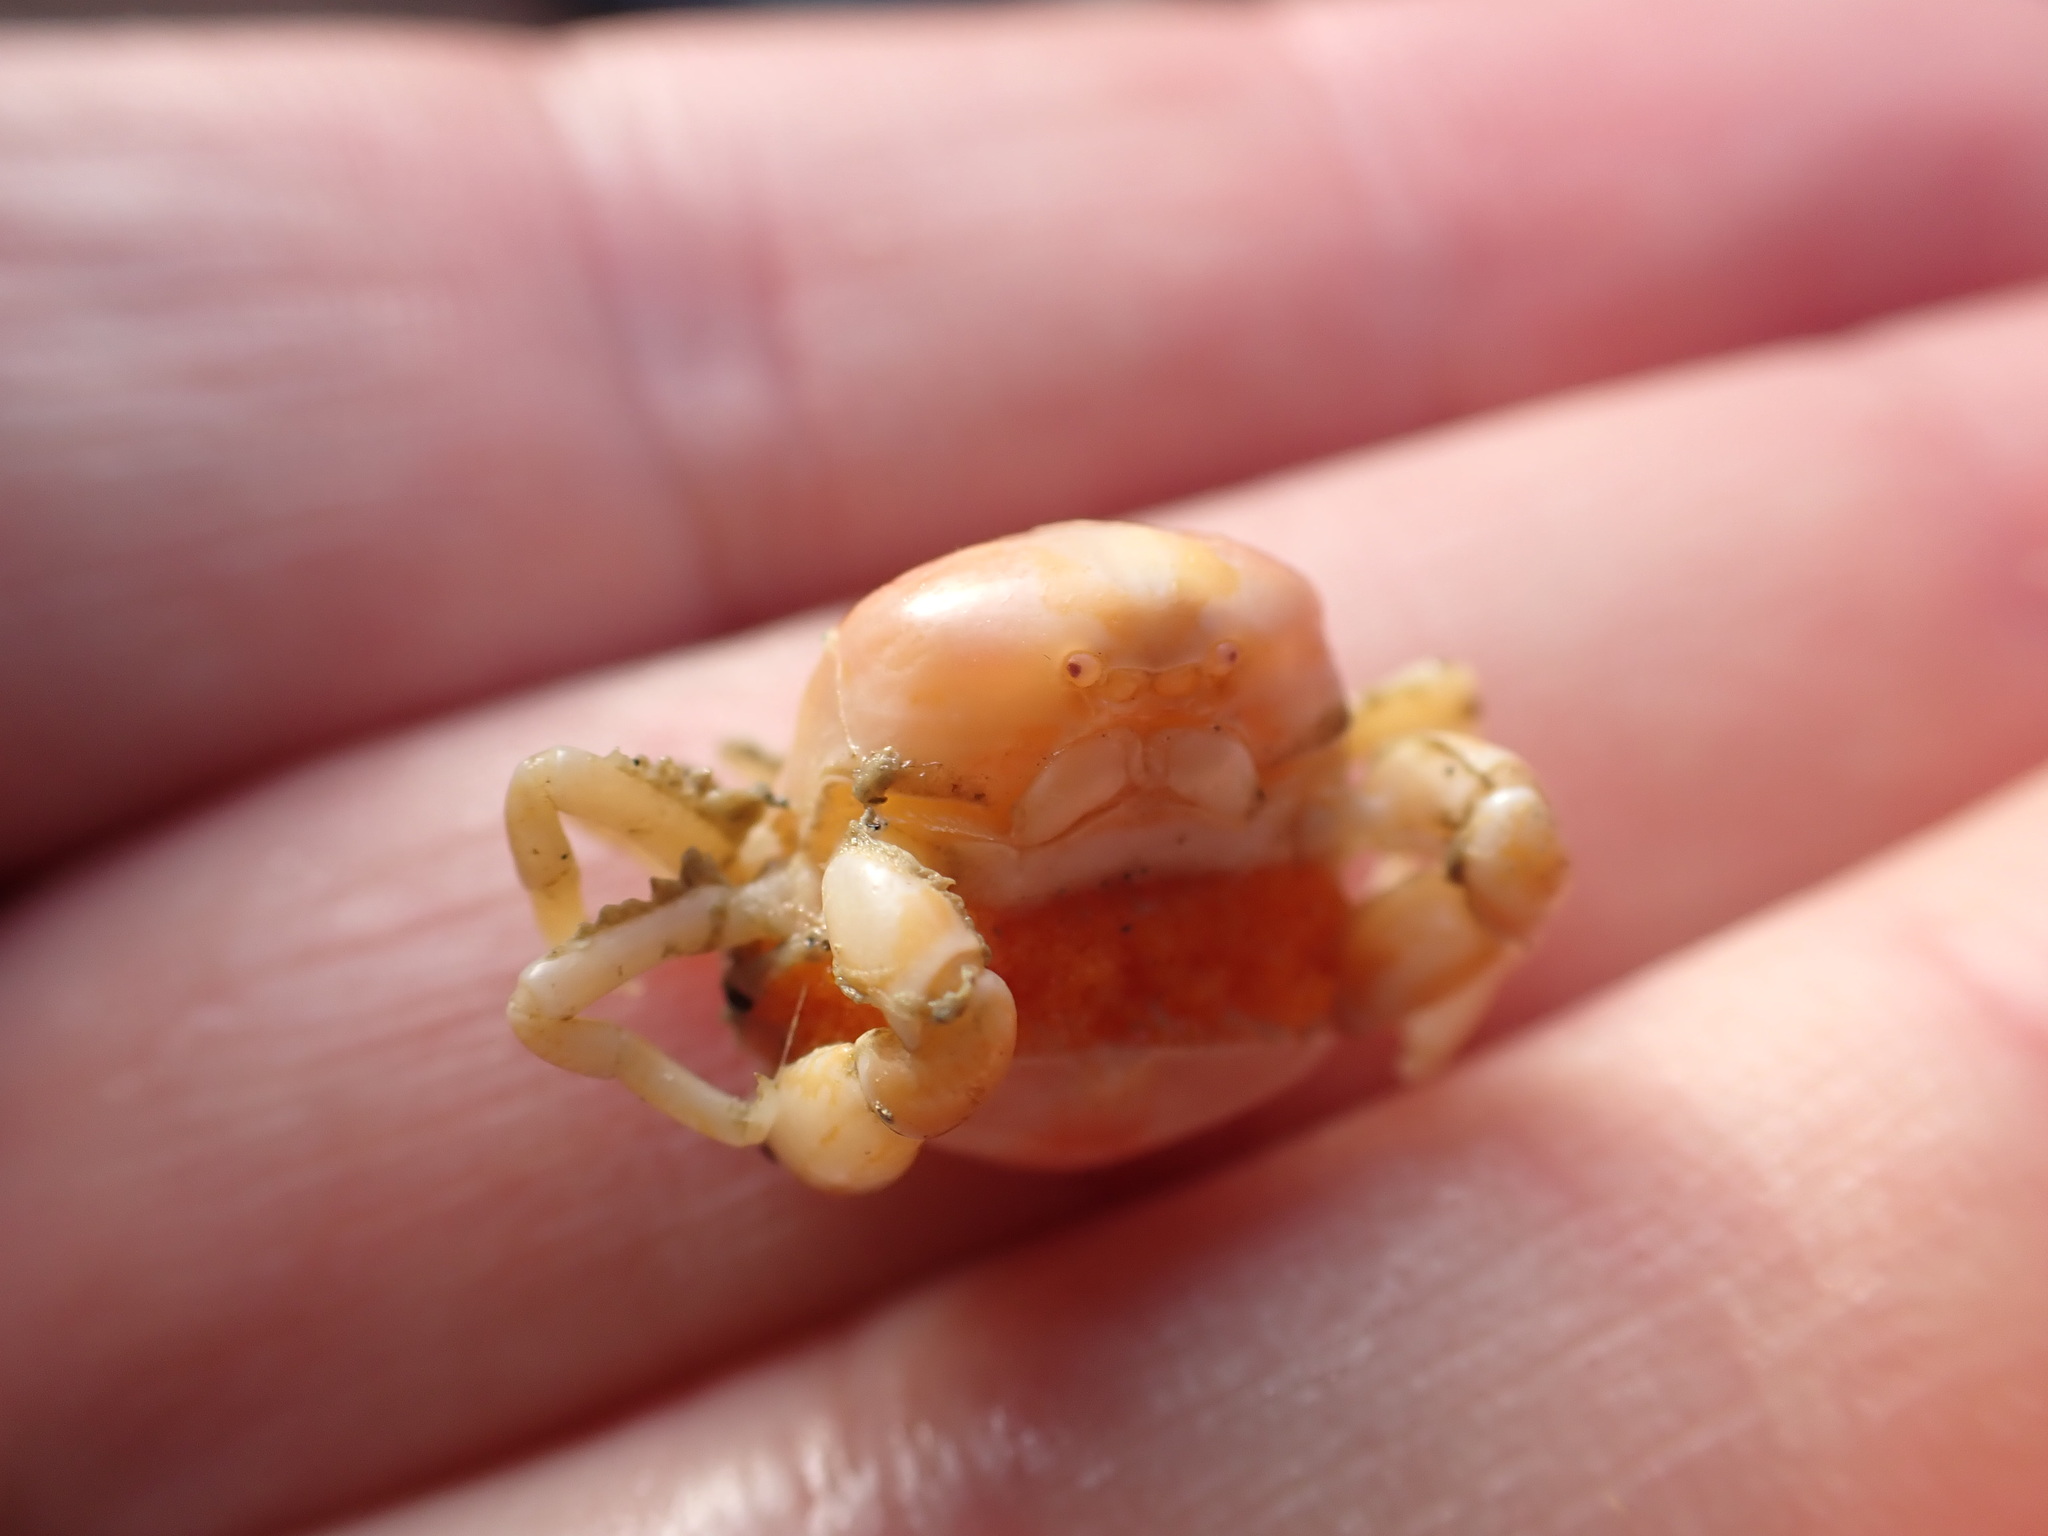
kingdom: Animalia
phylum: Arthropoda
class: Malacostraca
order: Decapoda
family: Pinnotheridae
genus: Nepinnotheres
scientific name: Nepinnotheres novaezelandiae
